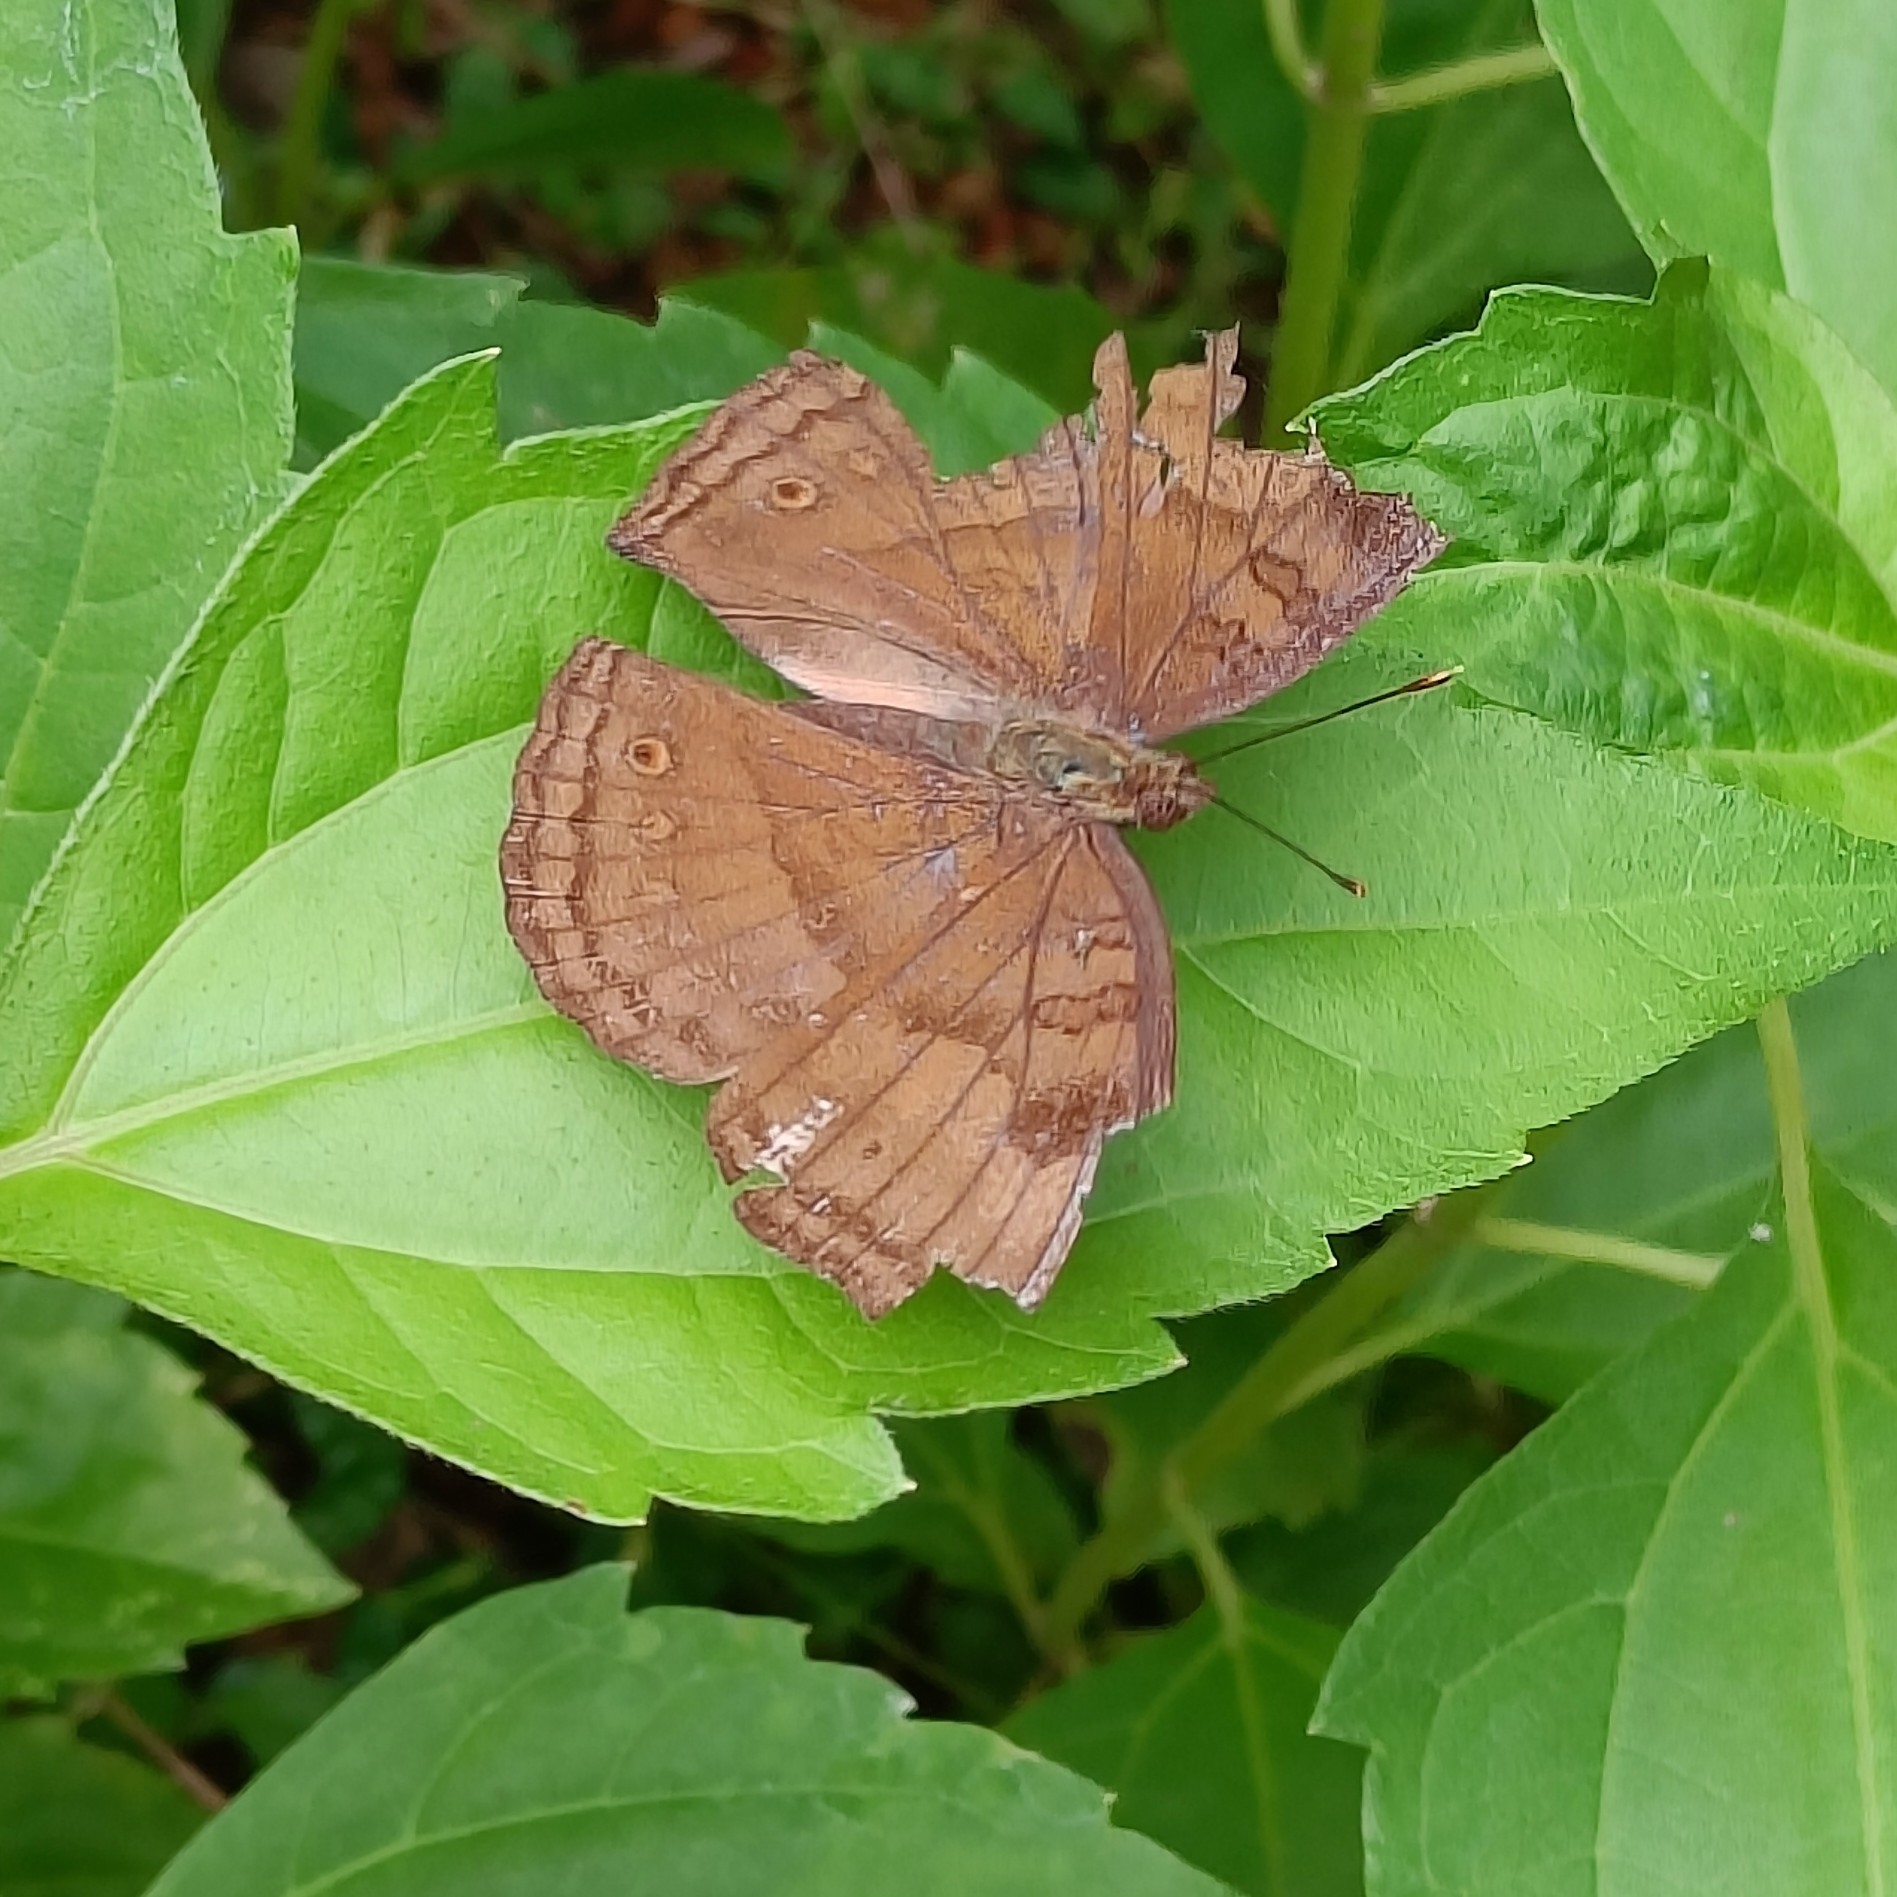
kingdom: Animalia
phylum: Arthropoda
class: Insecta
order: Lepidoptera
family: Nymphalidae
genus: Junonia
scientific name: Junonia iphita
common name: Chocolate pansy
